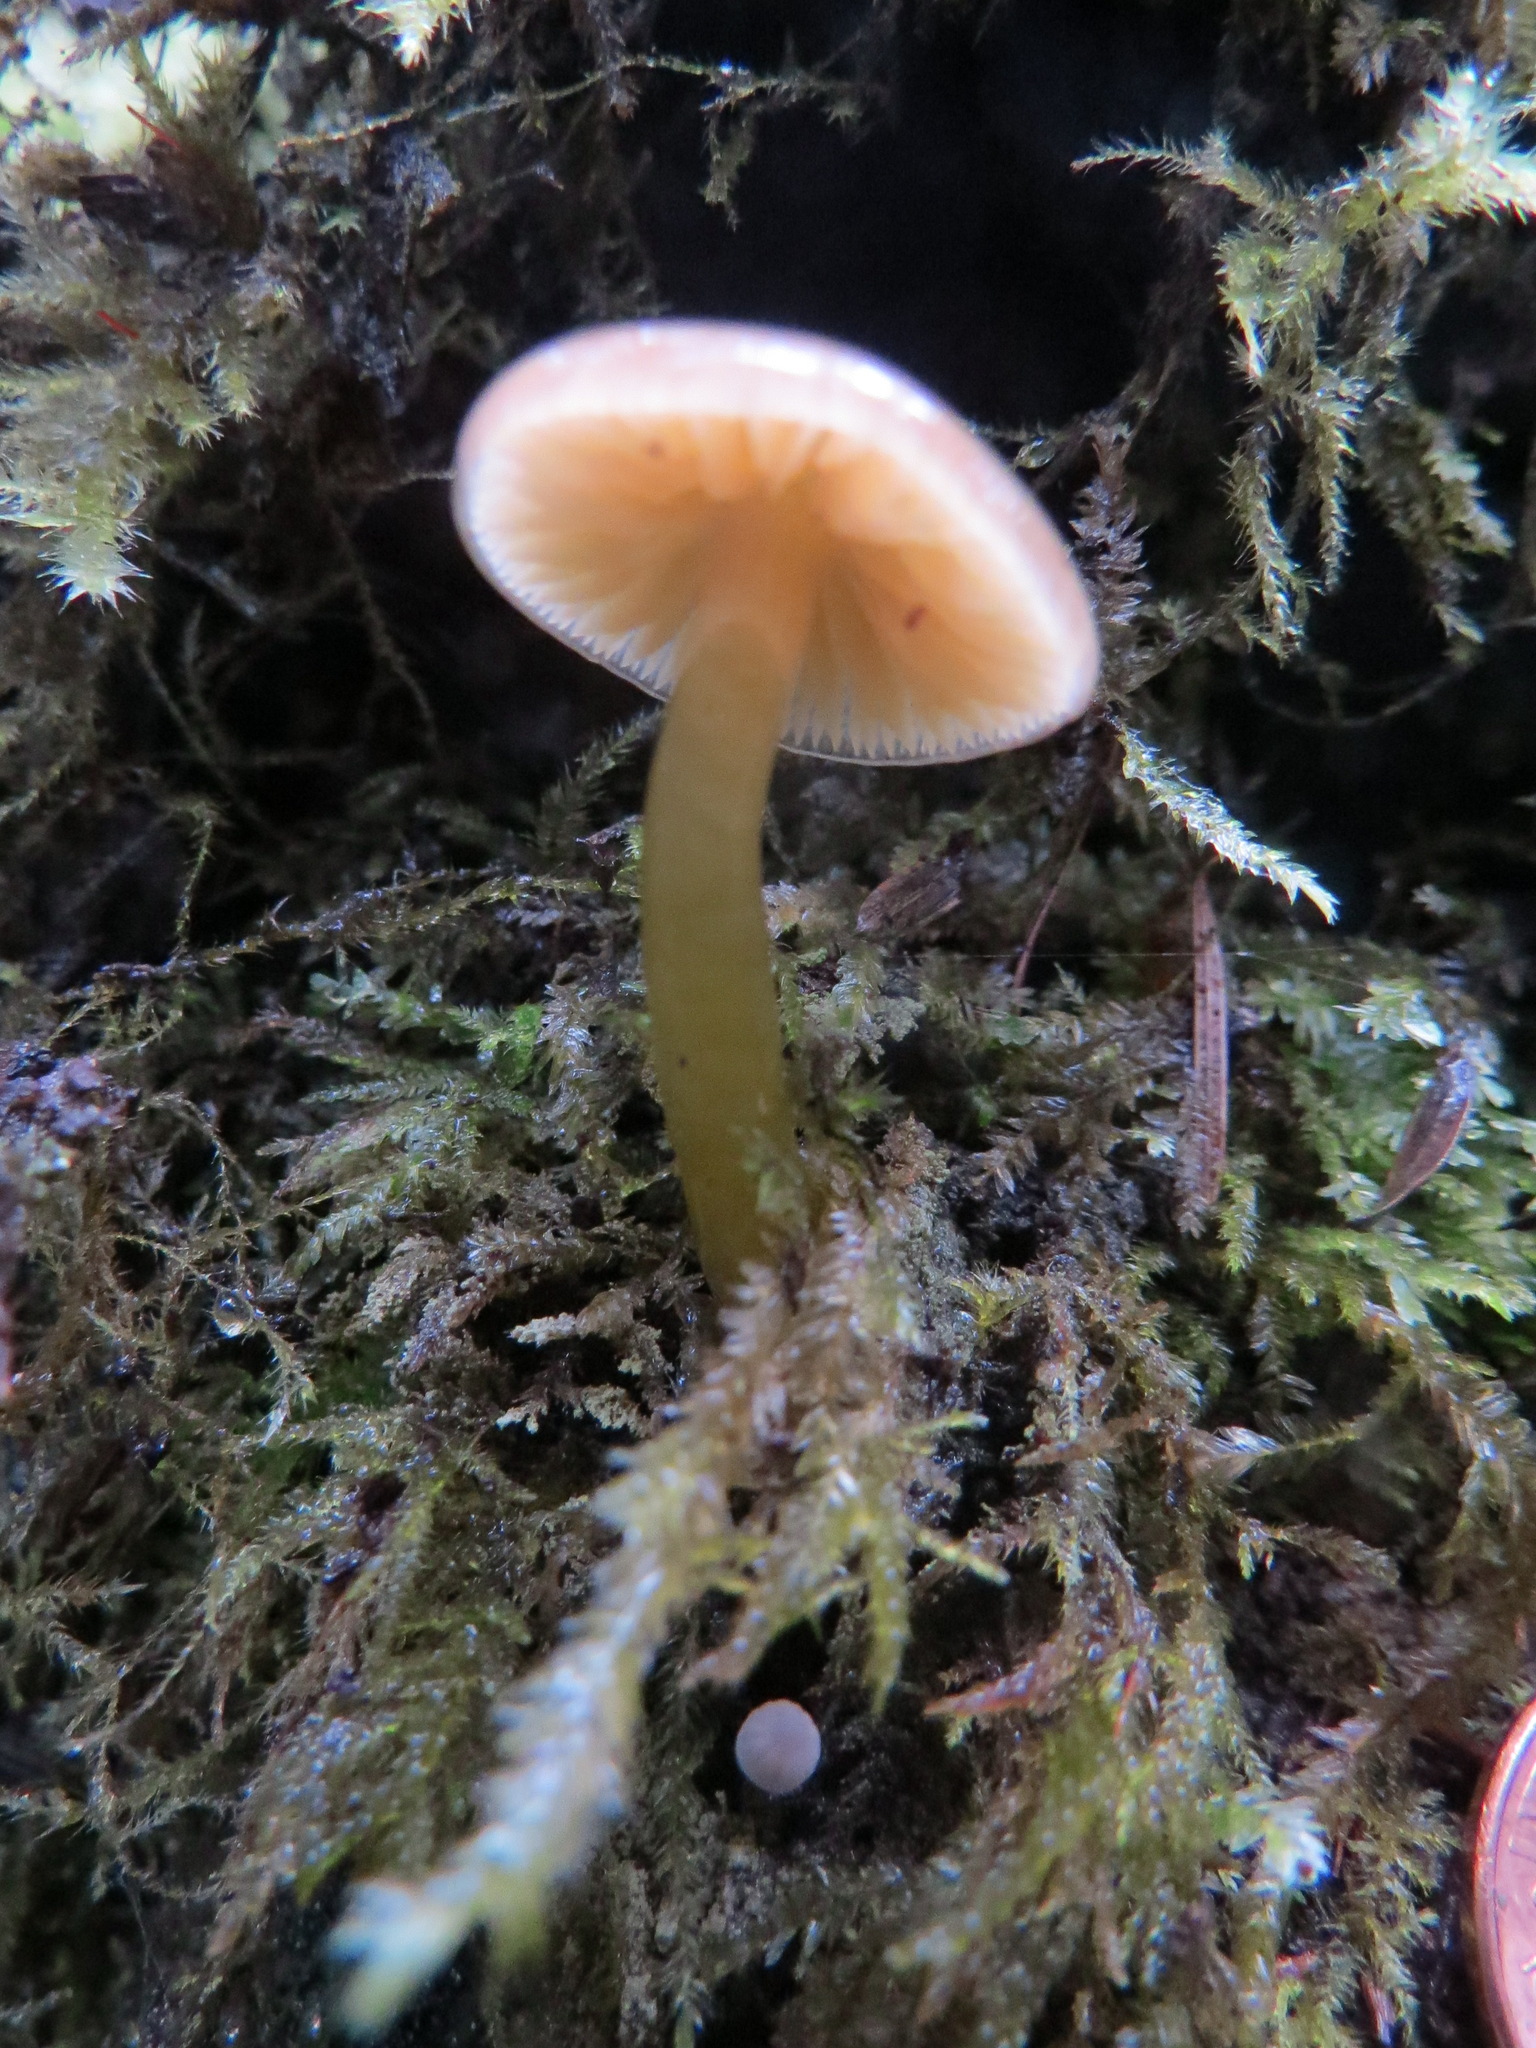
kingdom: Fungi
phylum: Basidiomycota
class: Agaricomycetes
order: Agaricales
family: Hygrophoraceae
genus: Gliophorus
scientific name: Gliophorus psittacinus
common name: Parrot wax-cap
